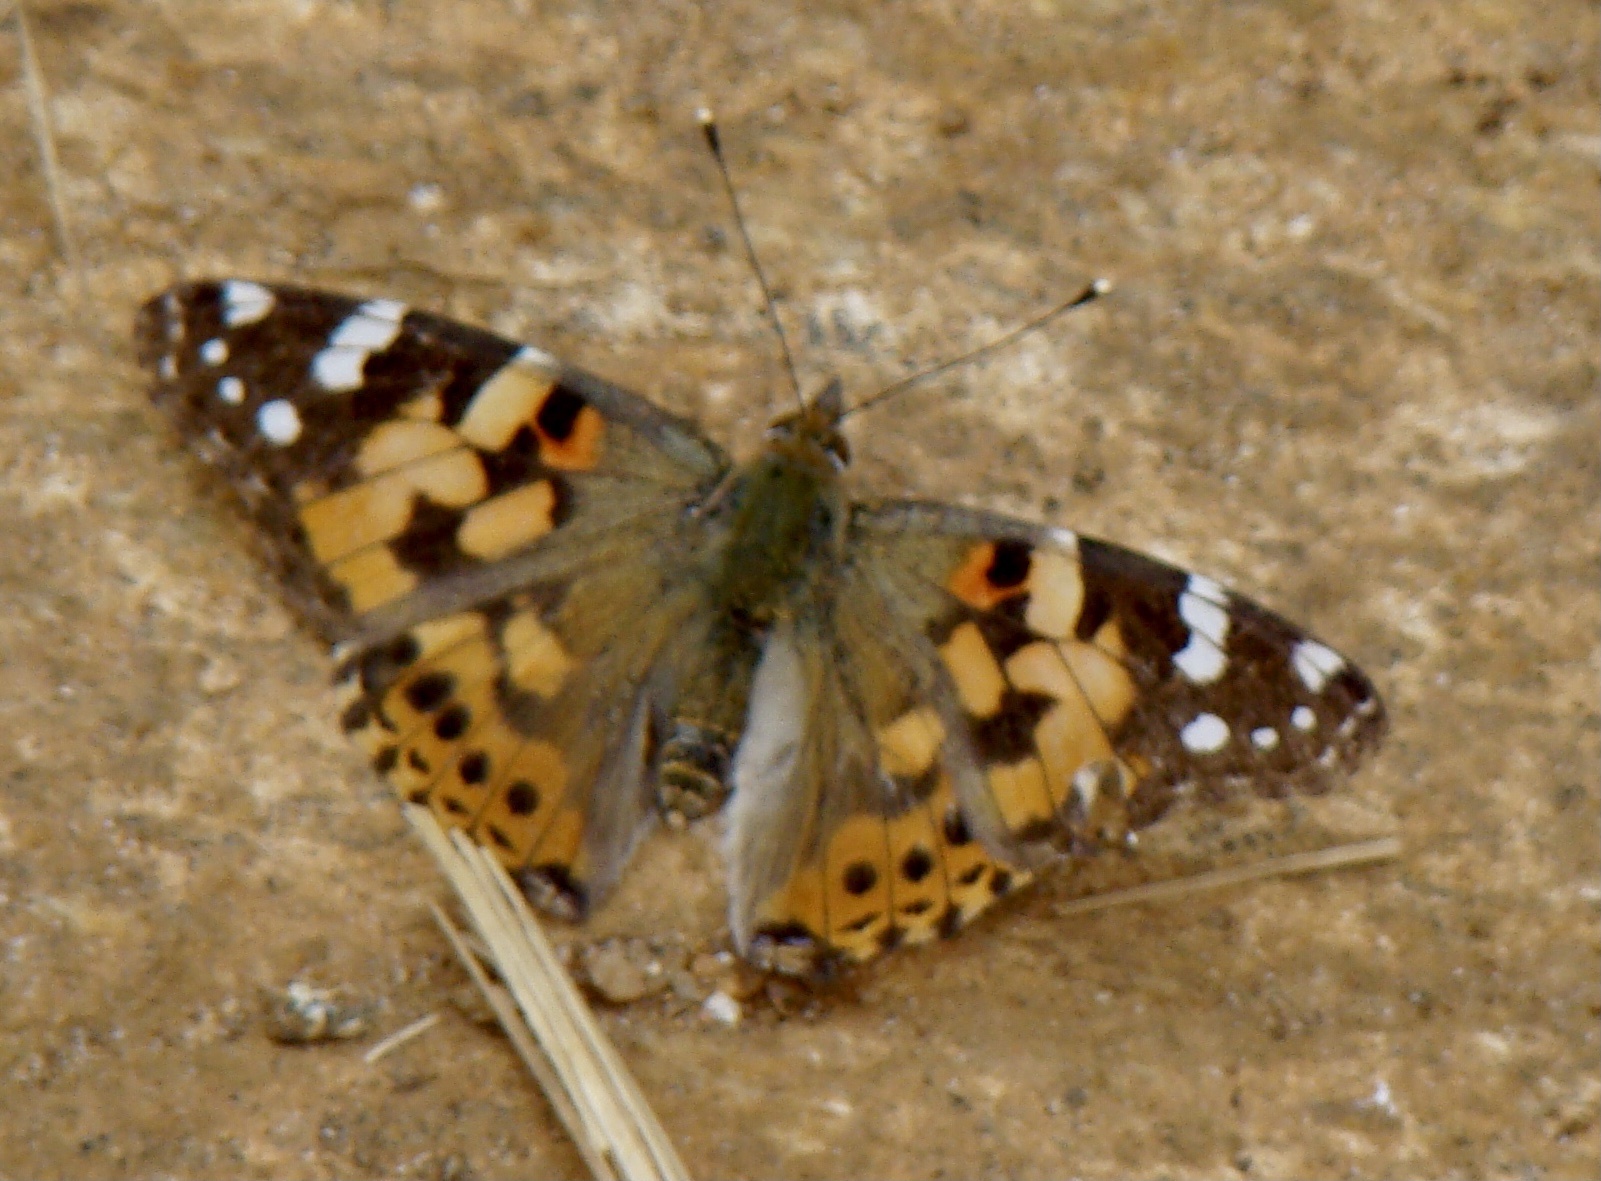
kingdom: Animalia
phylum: Arthropoda
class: Insecta
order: Lepidoptera
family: Nymphalidae
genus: Vanessa
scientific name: Vanessa cardui
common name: Painted lady
